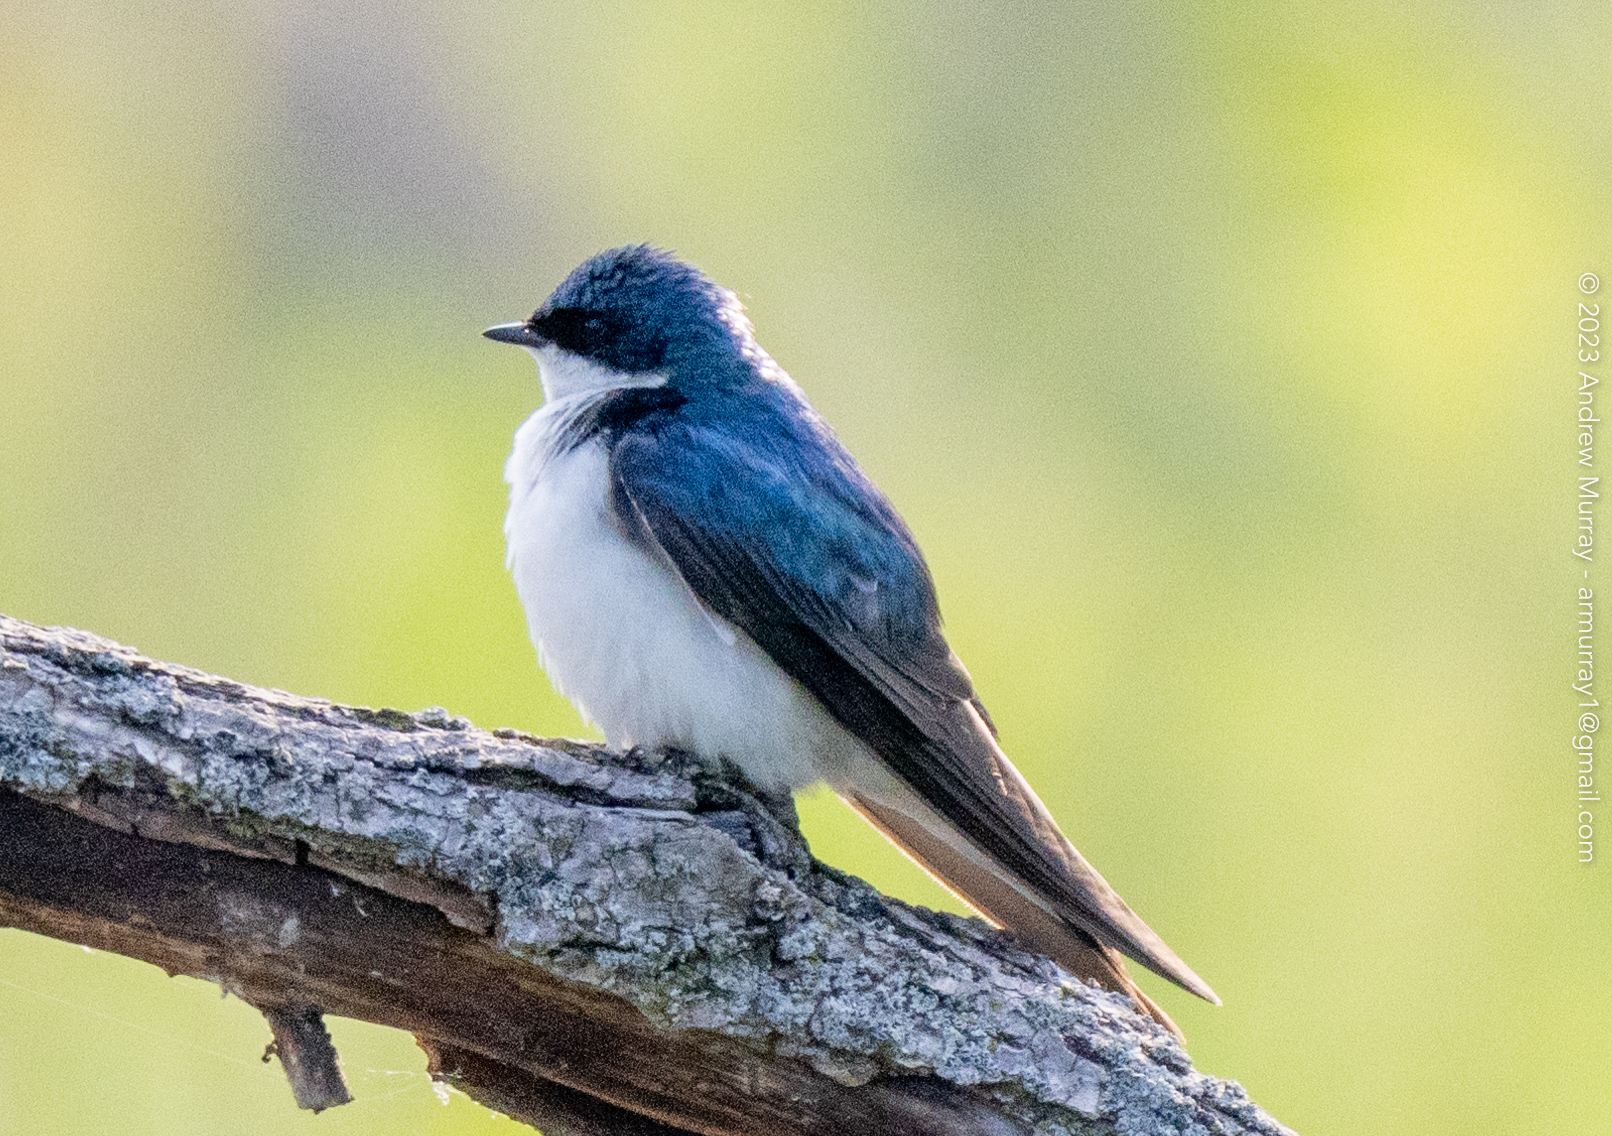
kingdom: Animalia
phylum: Chordata
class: Aves
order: Passeriformes
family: Hirundinidae
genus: Tachycineta
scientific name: Tachycineta bicolor
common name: Tree swallow
